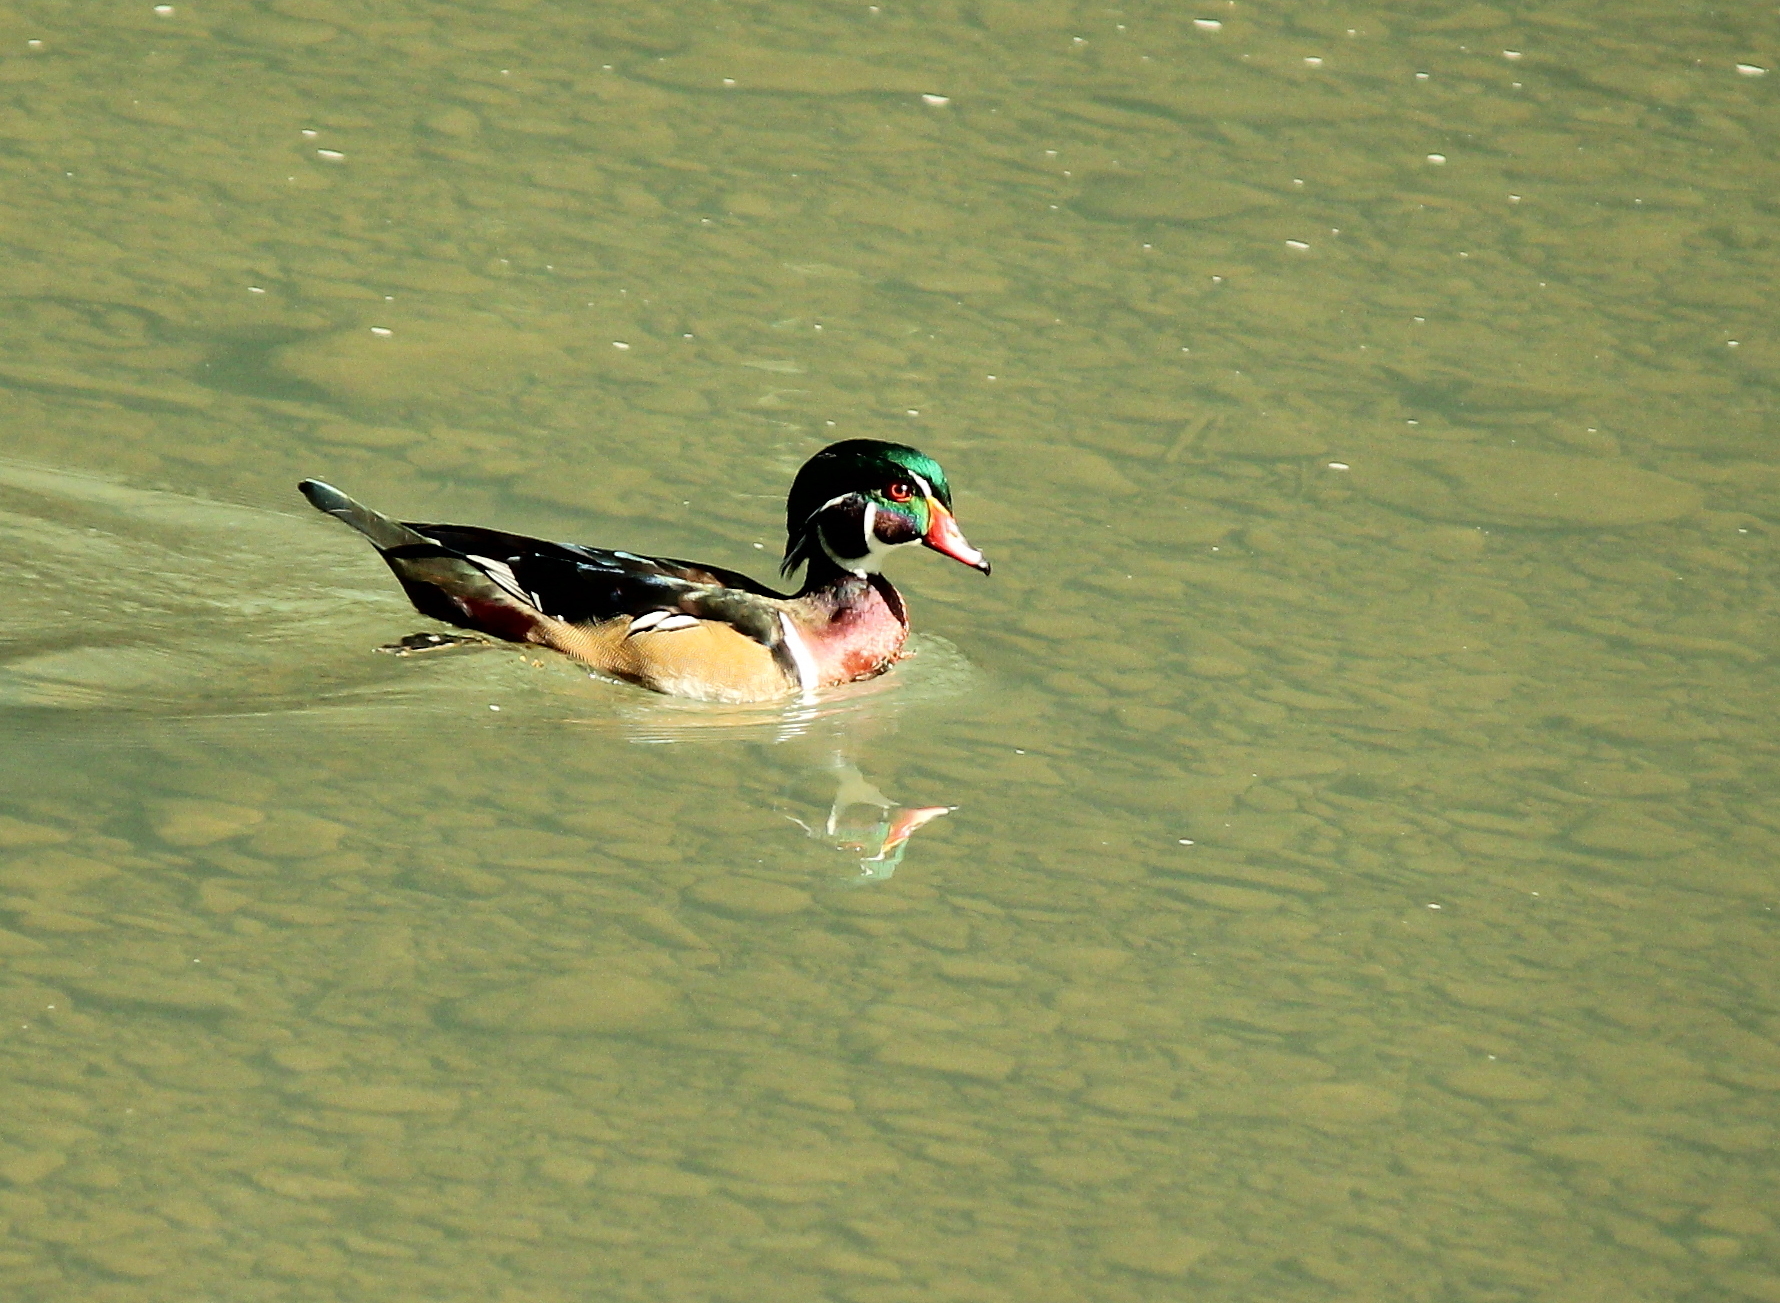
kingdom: Animalia
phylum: Chordata
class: Aves
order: Anseriformes
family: Anatidae
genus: Aix
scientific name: Aix sponsa
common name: Wood duck
